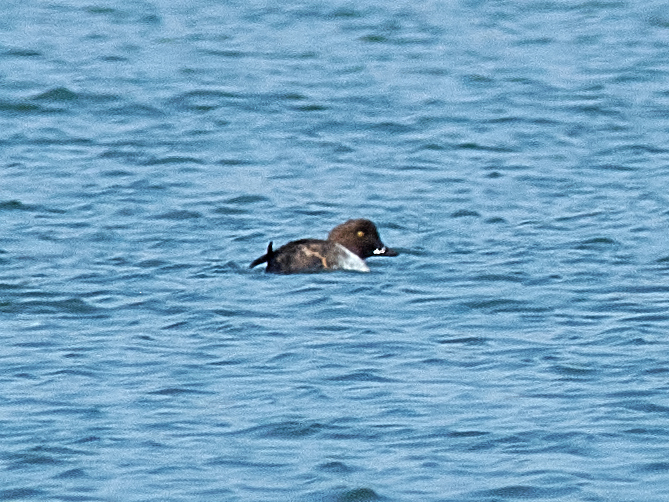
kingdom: Animalia
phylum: Chordata
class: Aves
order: Anseriformes
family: Anatidae
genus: Bucephala
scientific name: Bucephala clangula
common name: Common goldeneye
